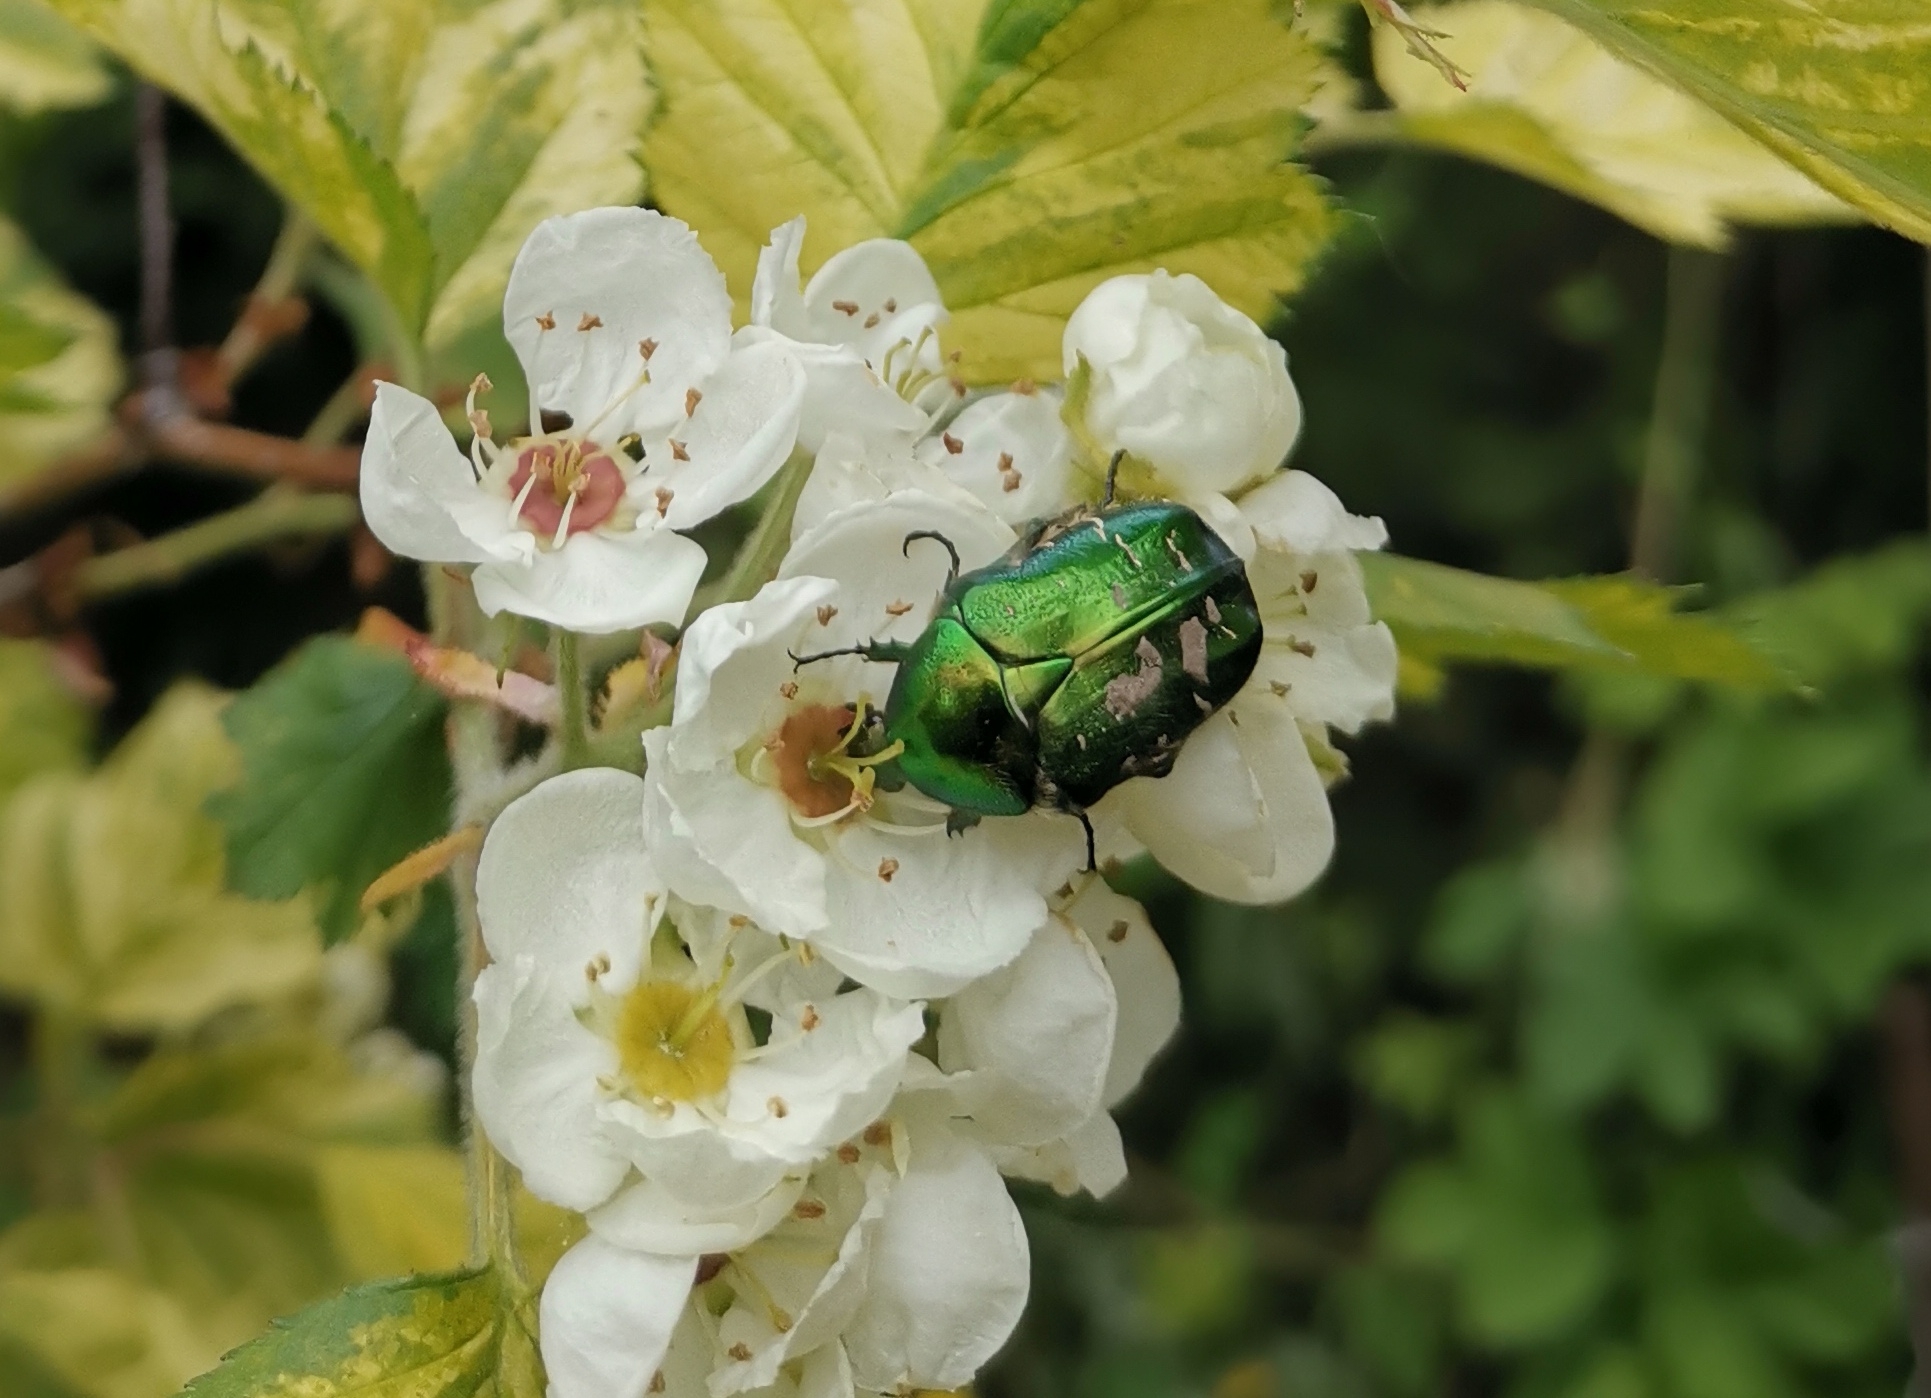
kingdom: Animalia
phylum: Arthropoda
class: Insecta
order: Coleoptera
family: Scarabaeidae
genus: Cetonia
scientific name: Cetonia aurata
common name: Rose chafer
